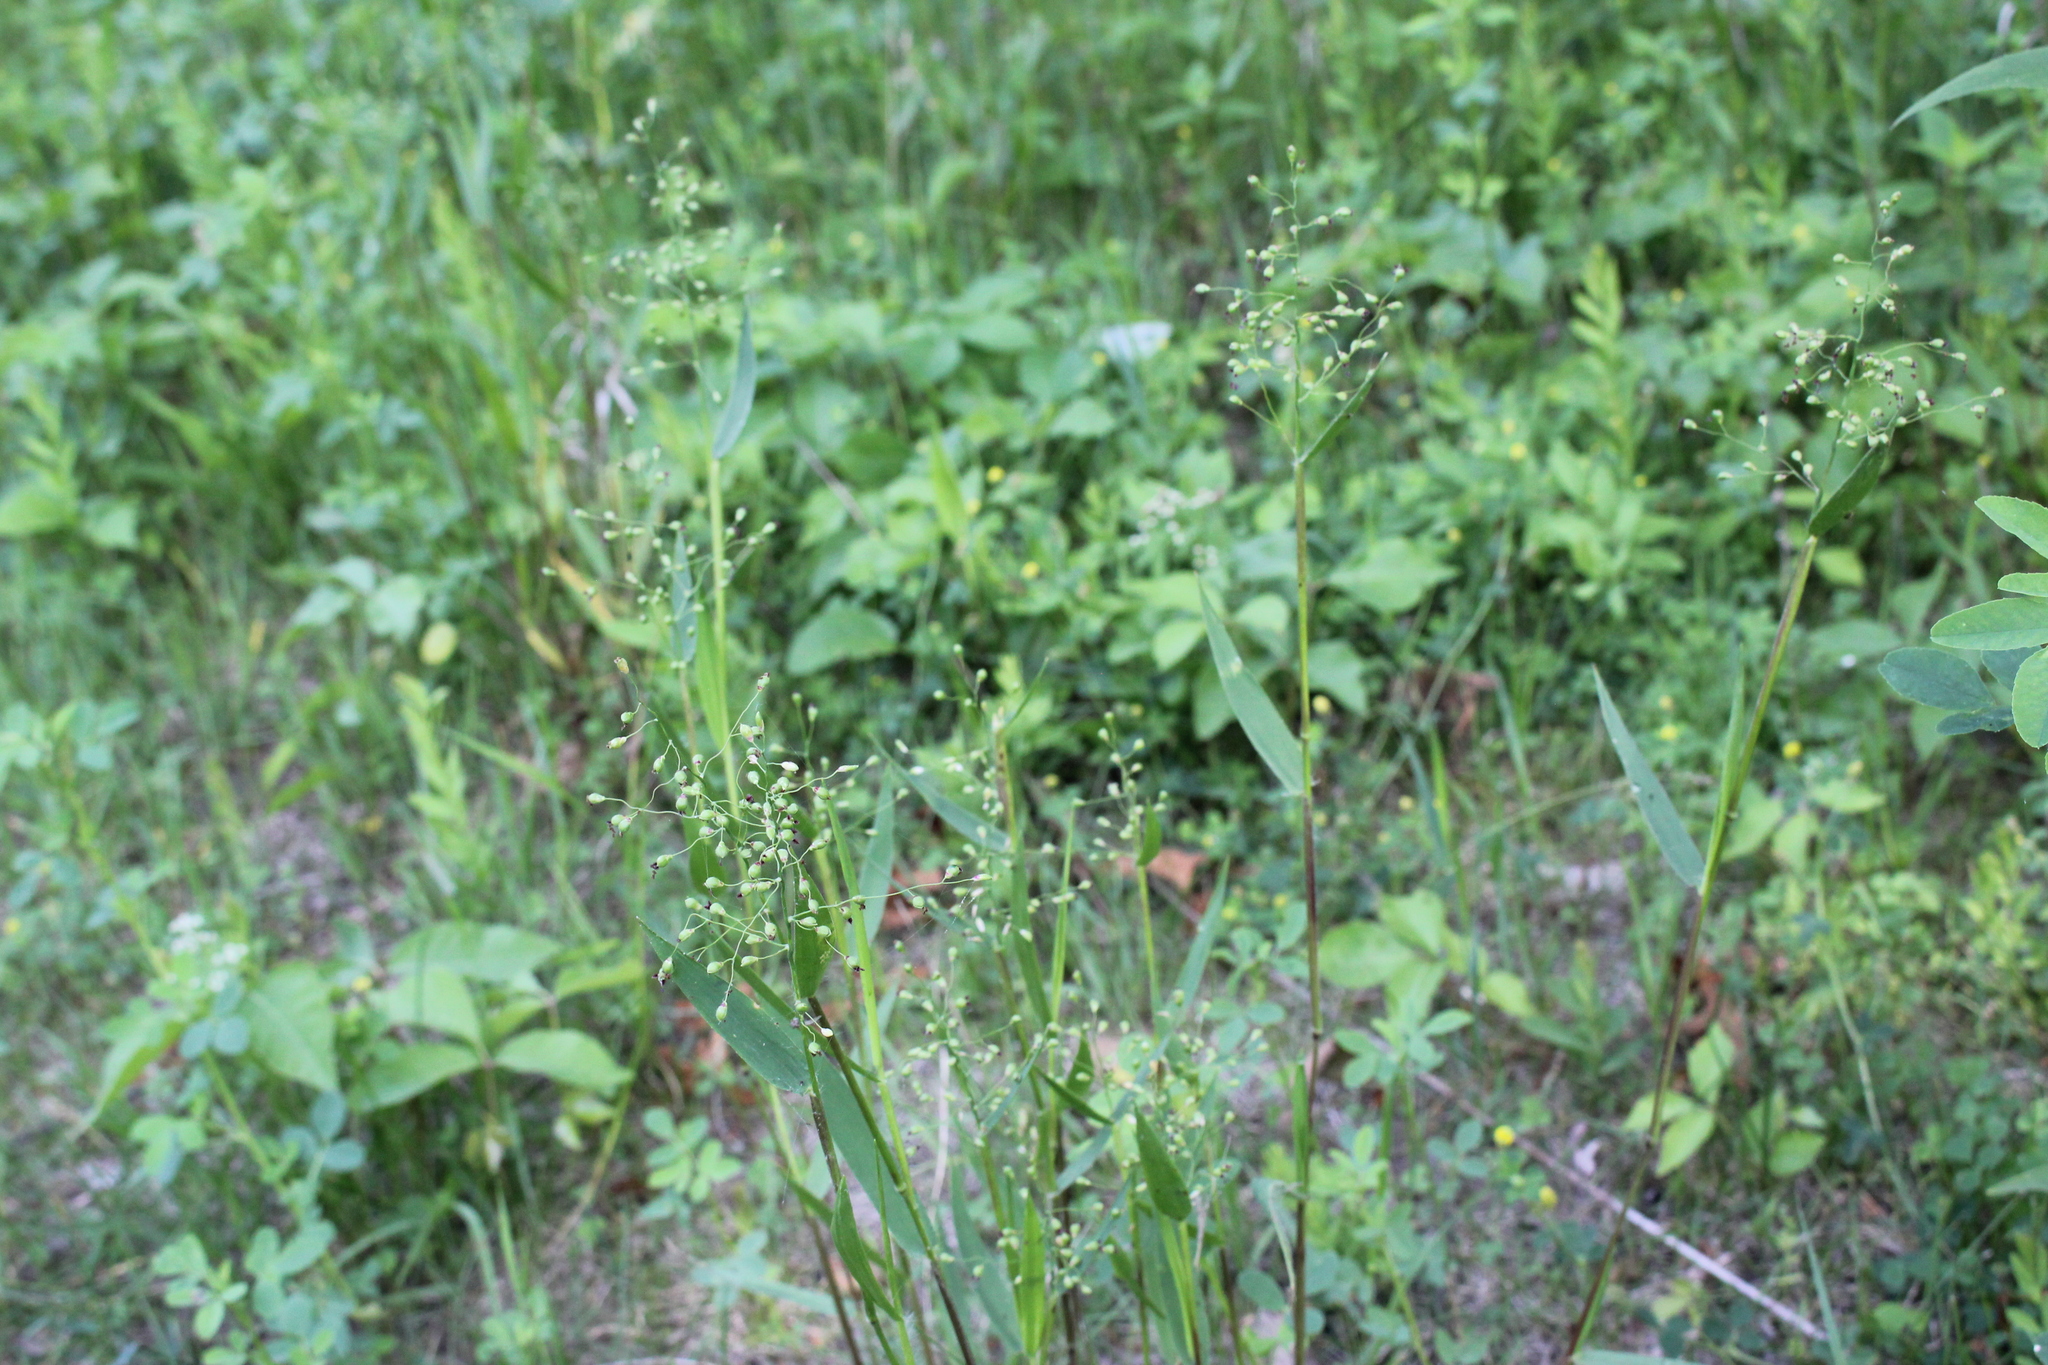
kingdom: Plantae
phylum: Tracheophyta
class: Liliopsida
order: Poales
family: Poaceae
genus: Dichanthelium
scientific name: Dichanthelium scribnerianum
